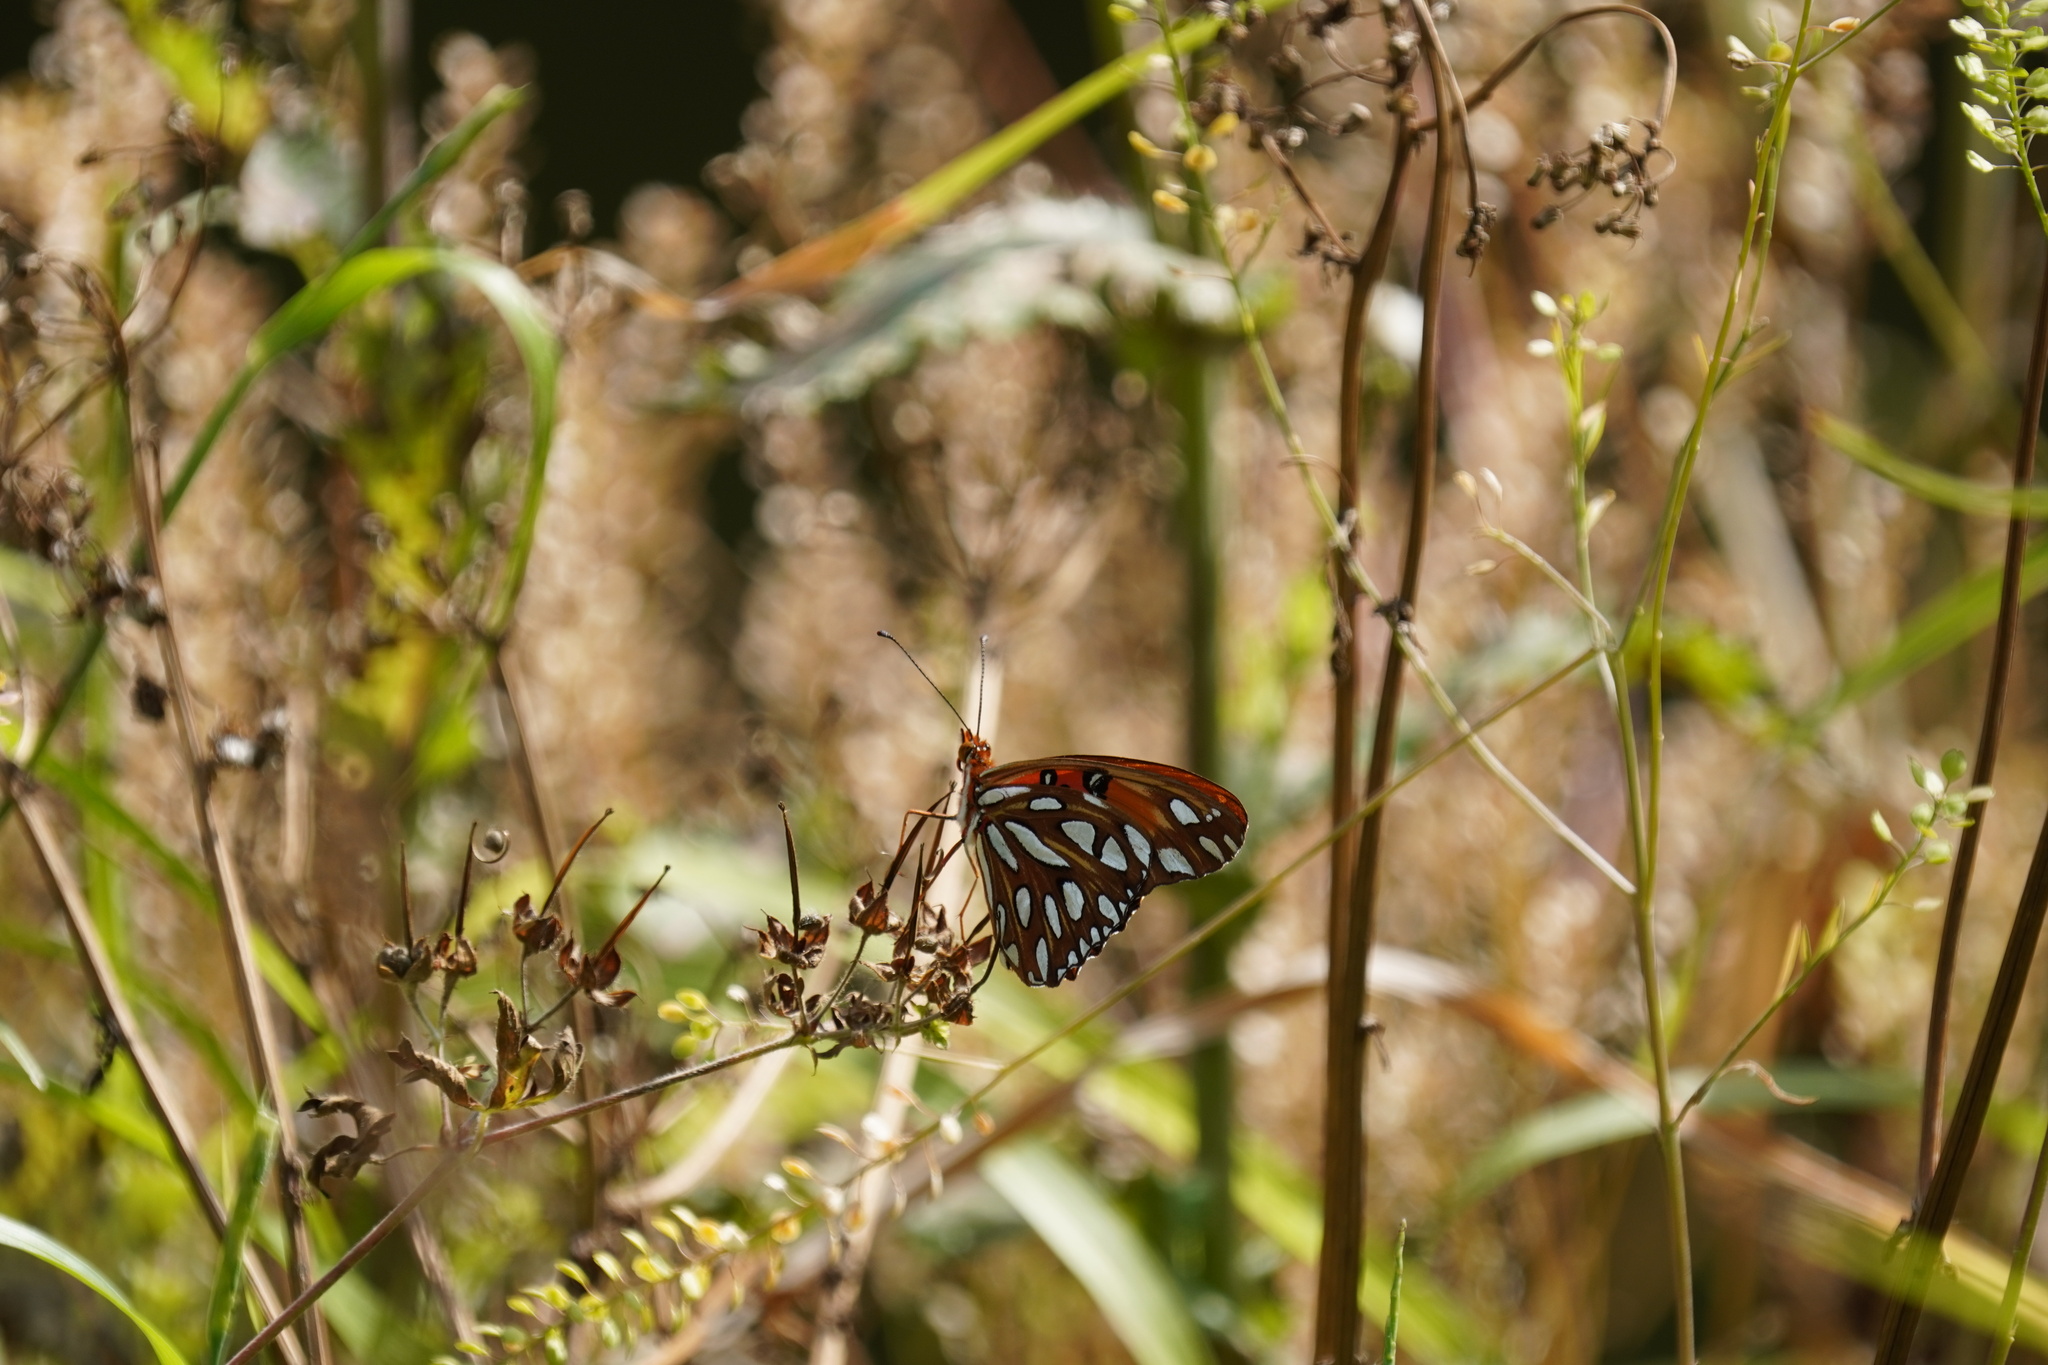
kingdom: Animalia
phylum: Arthropoda
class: Insecta
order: Lepidoptera
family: Nymphalidae
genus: Dione
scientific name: Dione vanillae
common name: Gulf fritillary
